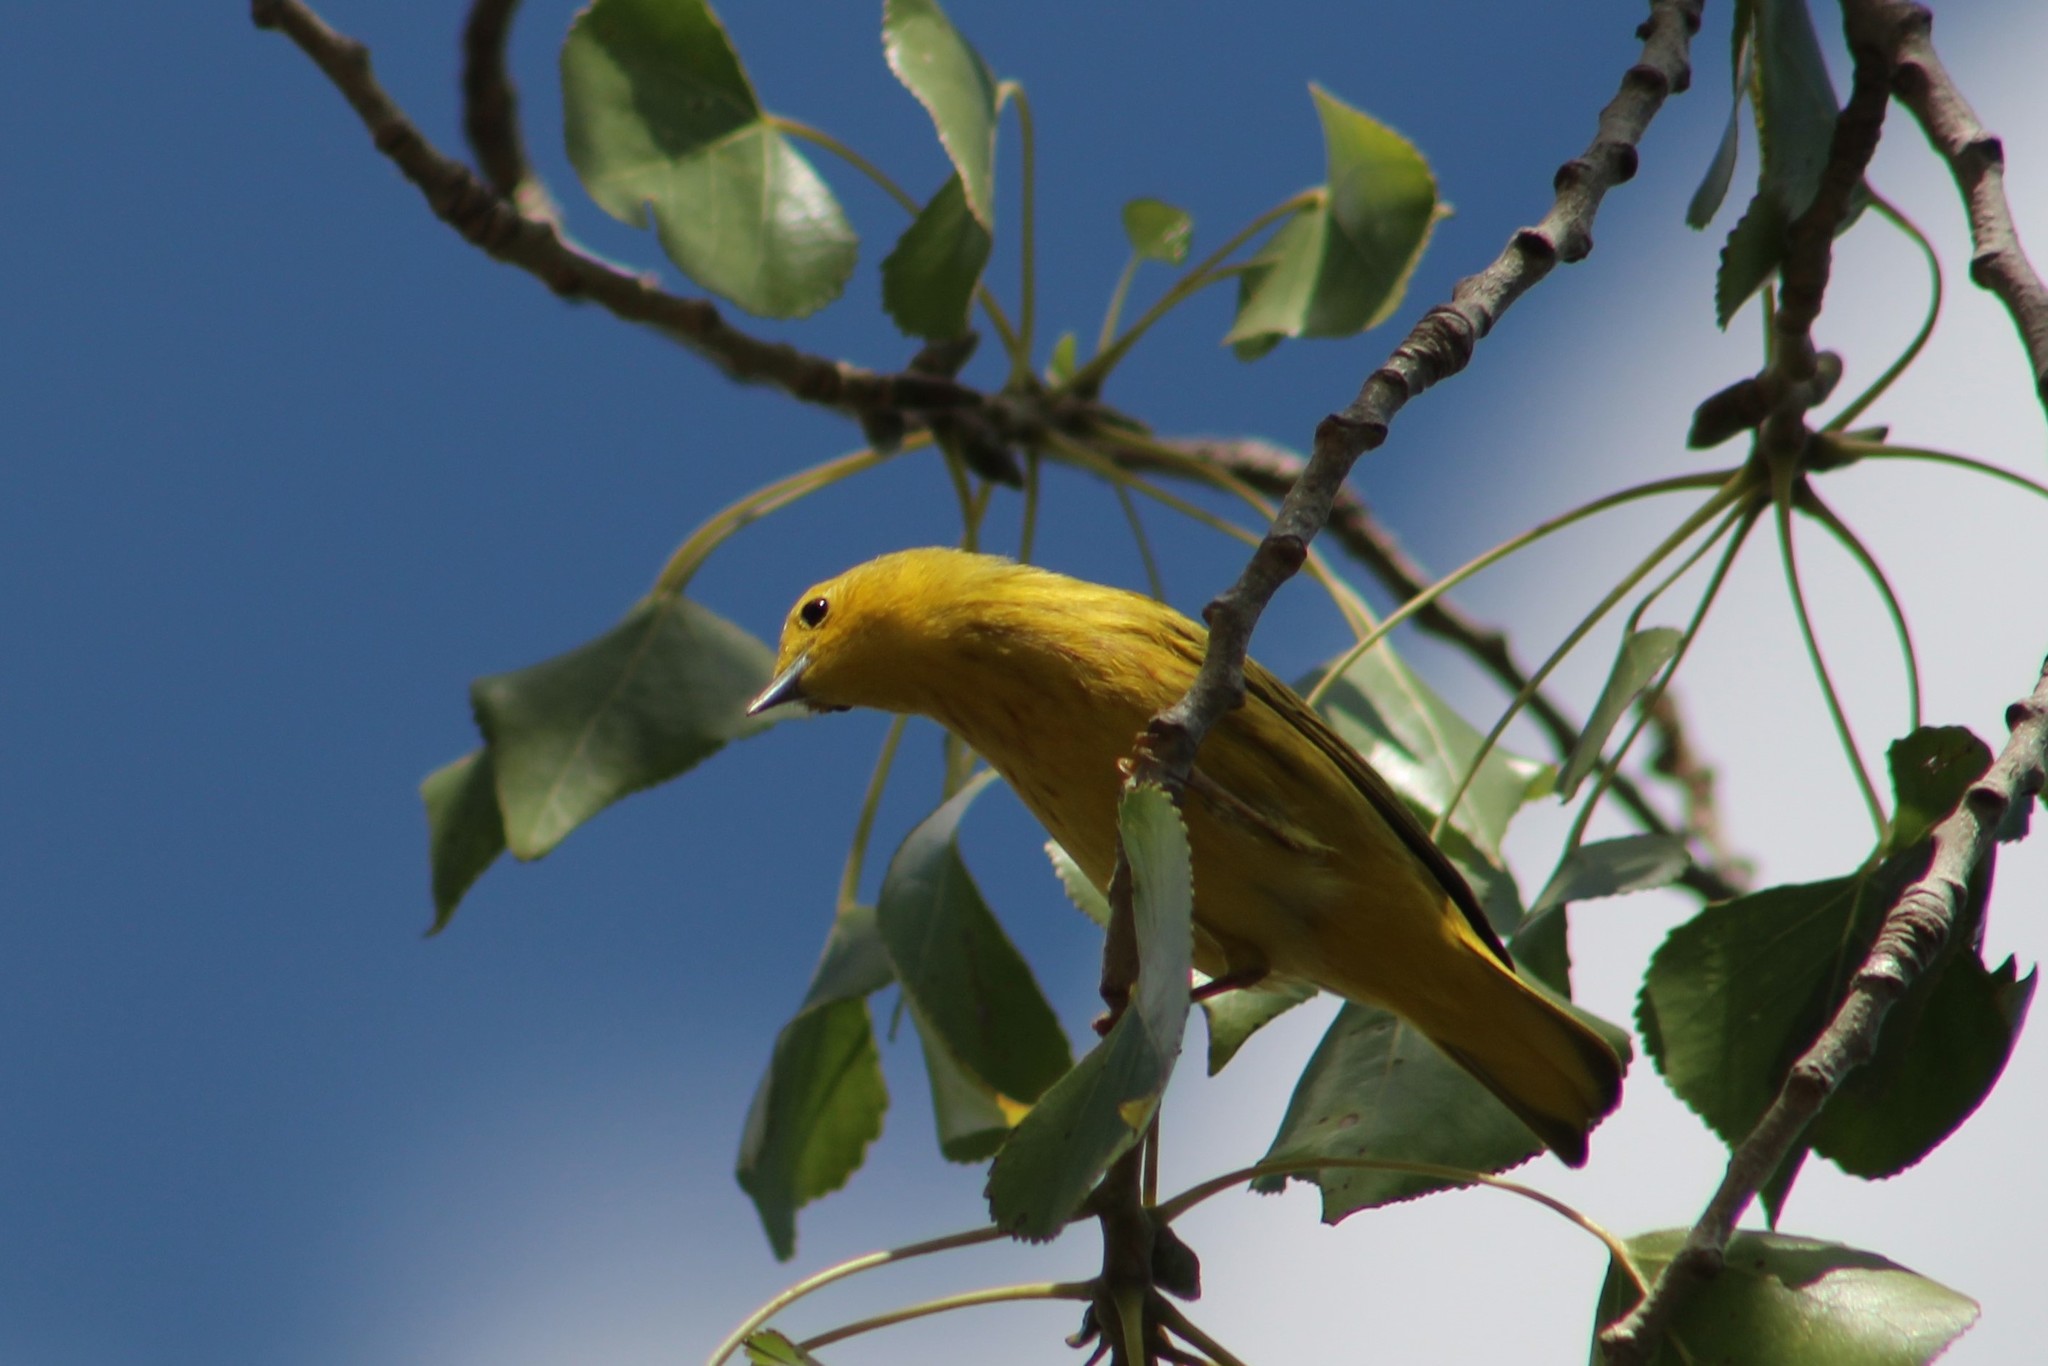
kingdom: Animalia
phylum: Chordata
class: Aves
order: Passeriformes
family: Parulidae
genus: Setophaga
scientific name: Setophaga petechia
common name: Yellow warbler
